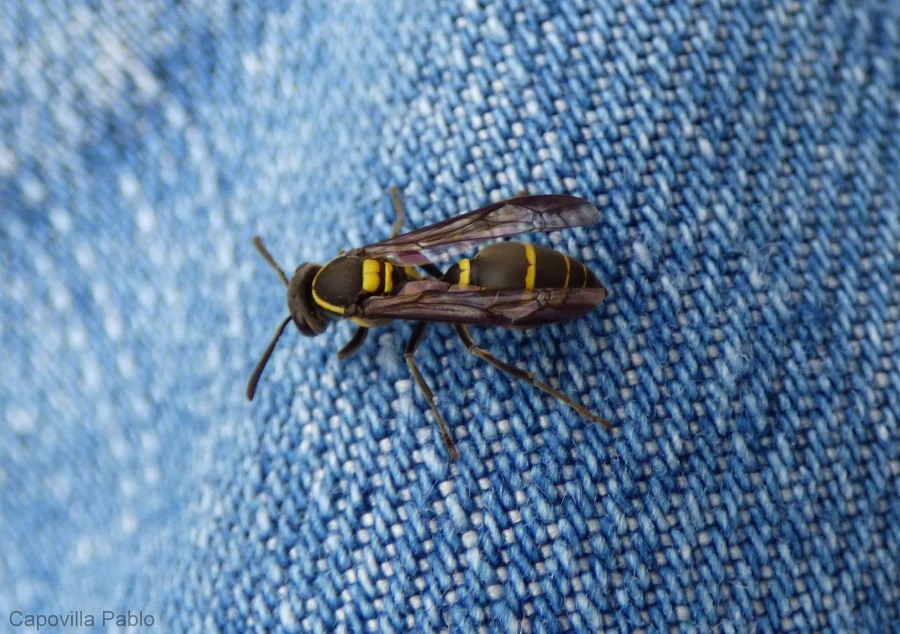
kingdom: Animalia
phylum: Arthropoda
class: Insecta
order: Hymenoptera
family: Eumenidae
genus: Polybia
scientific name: Polybia occidentalis
